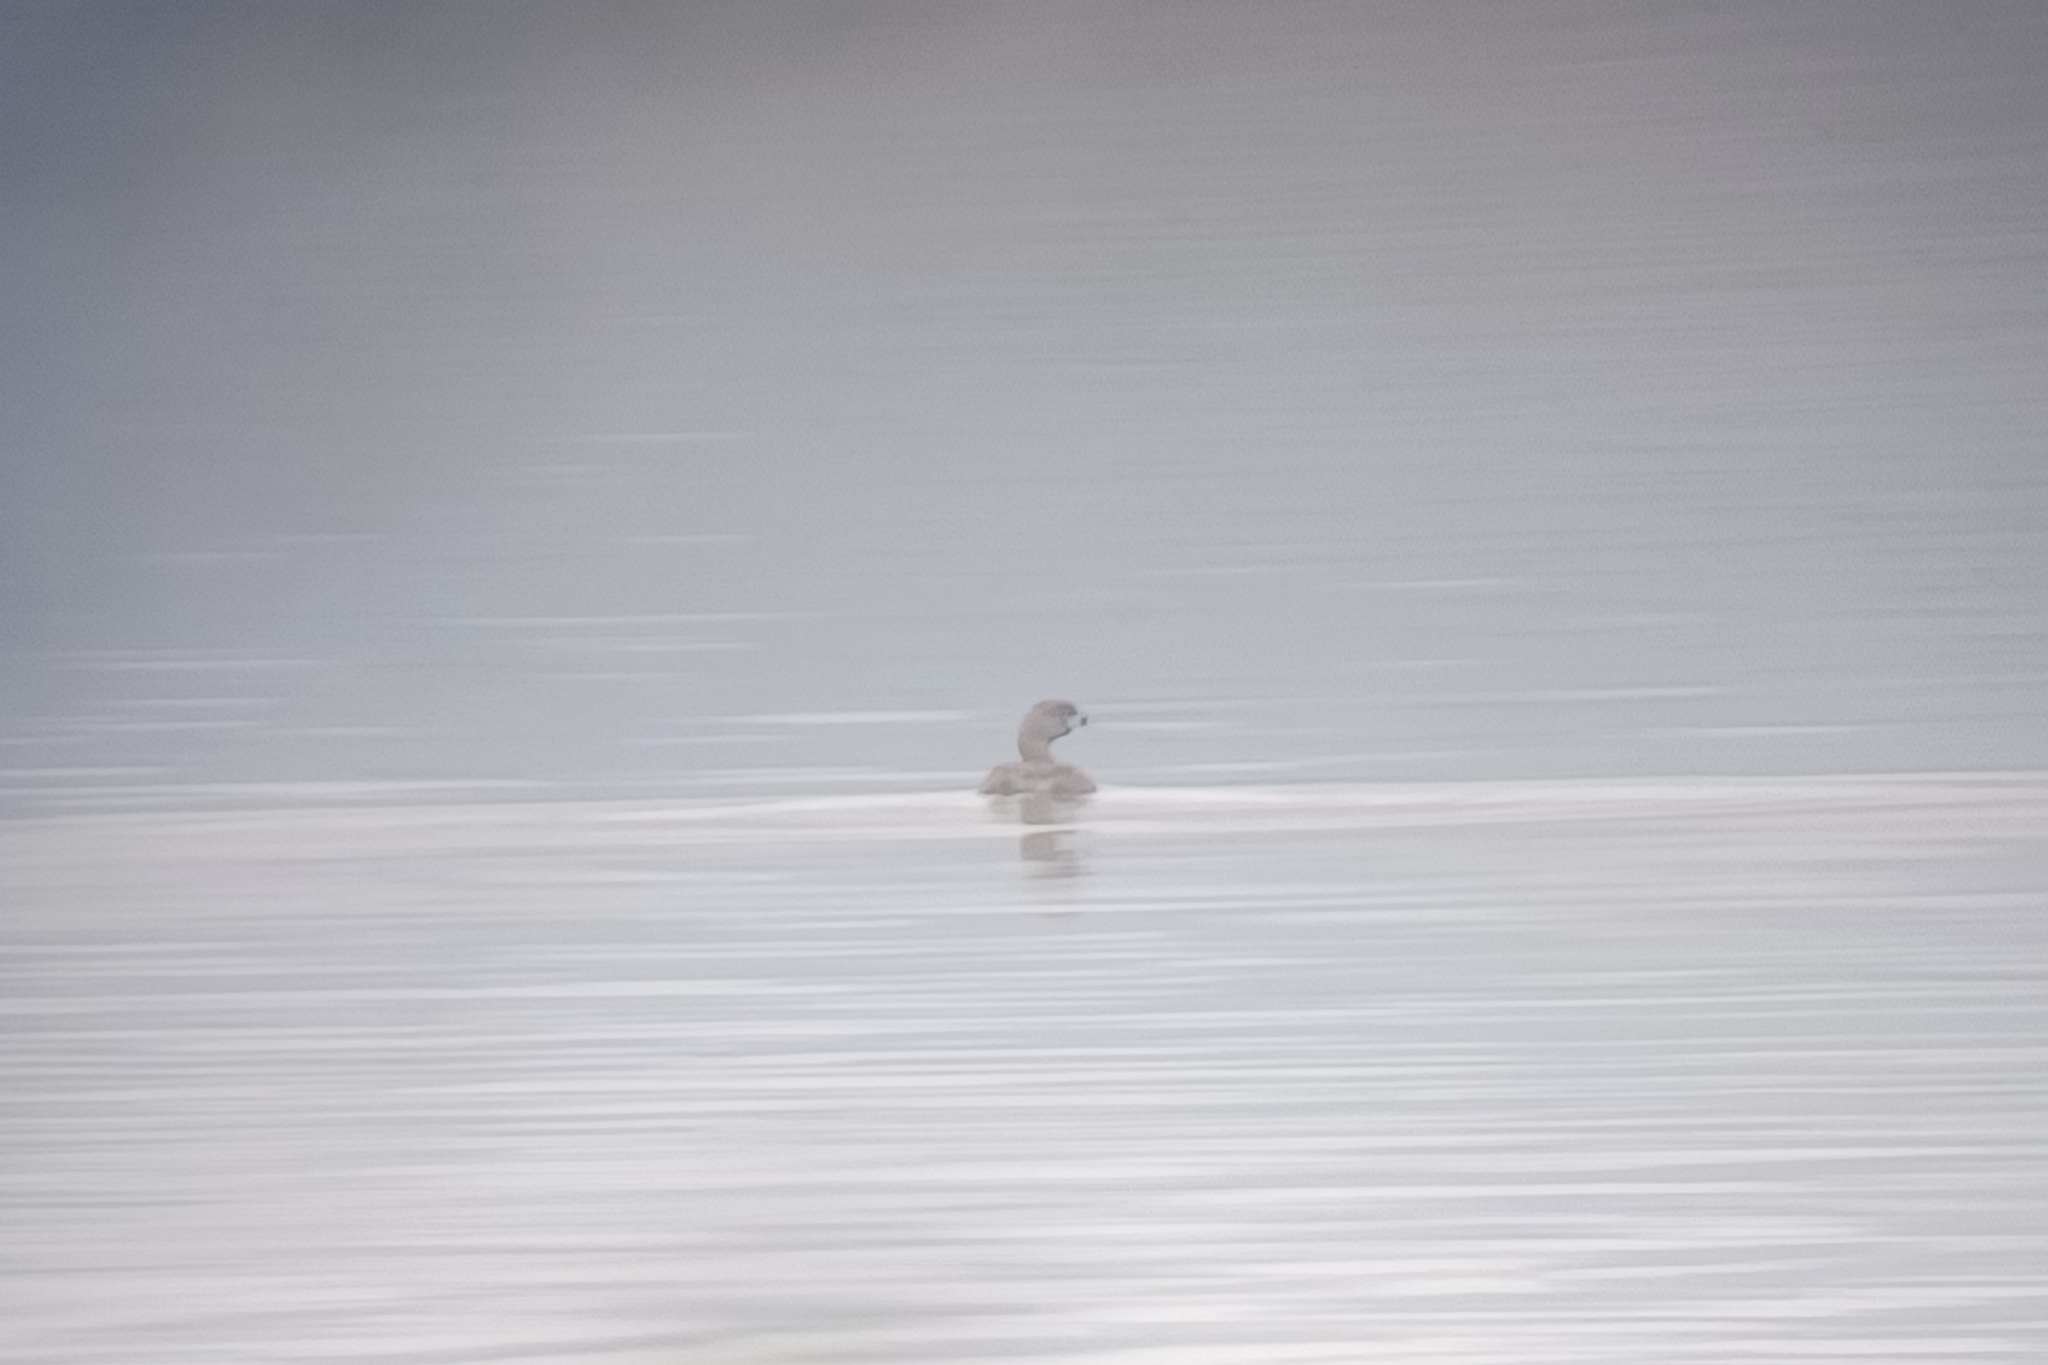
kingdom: Animalia
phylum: Chordata
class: Aves
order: Podicipediformes
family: Podicipedidae
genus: Podilymbus
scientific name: Podilymbus podiceps
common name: Pied-billed grebe
